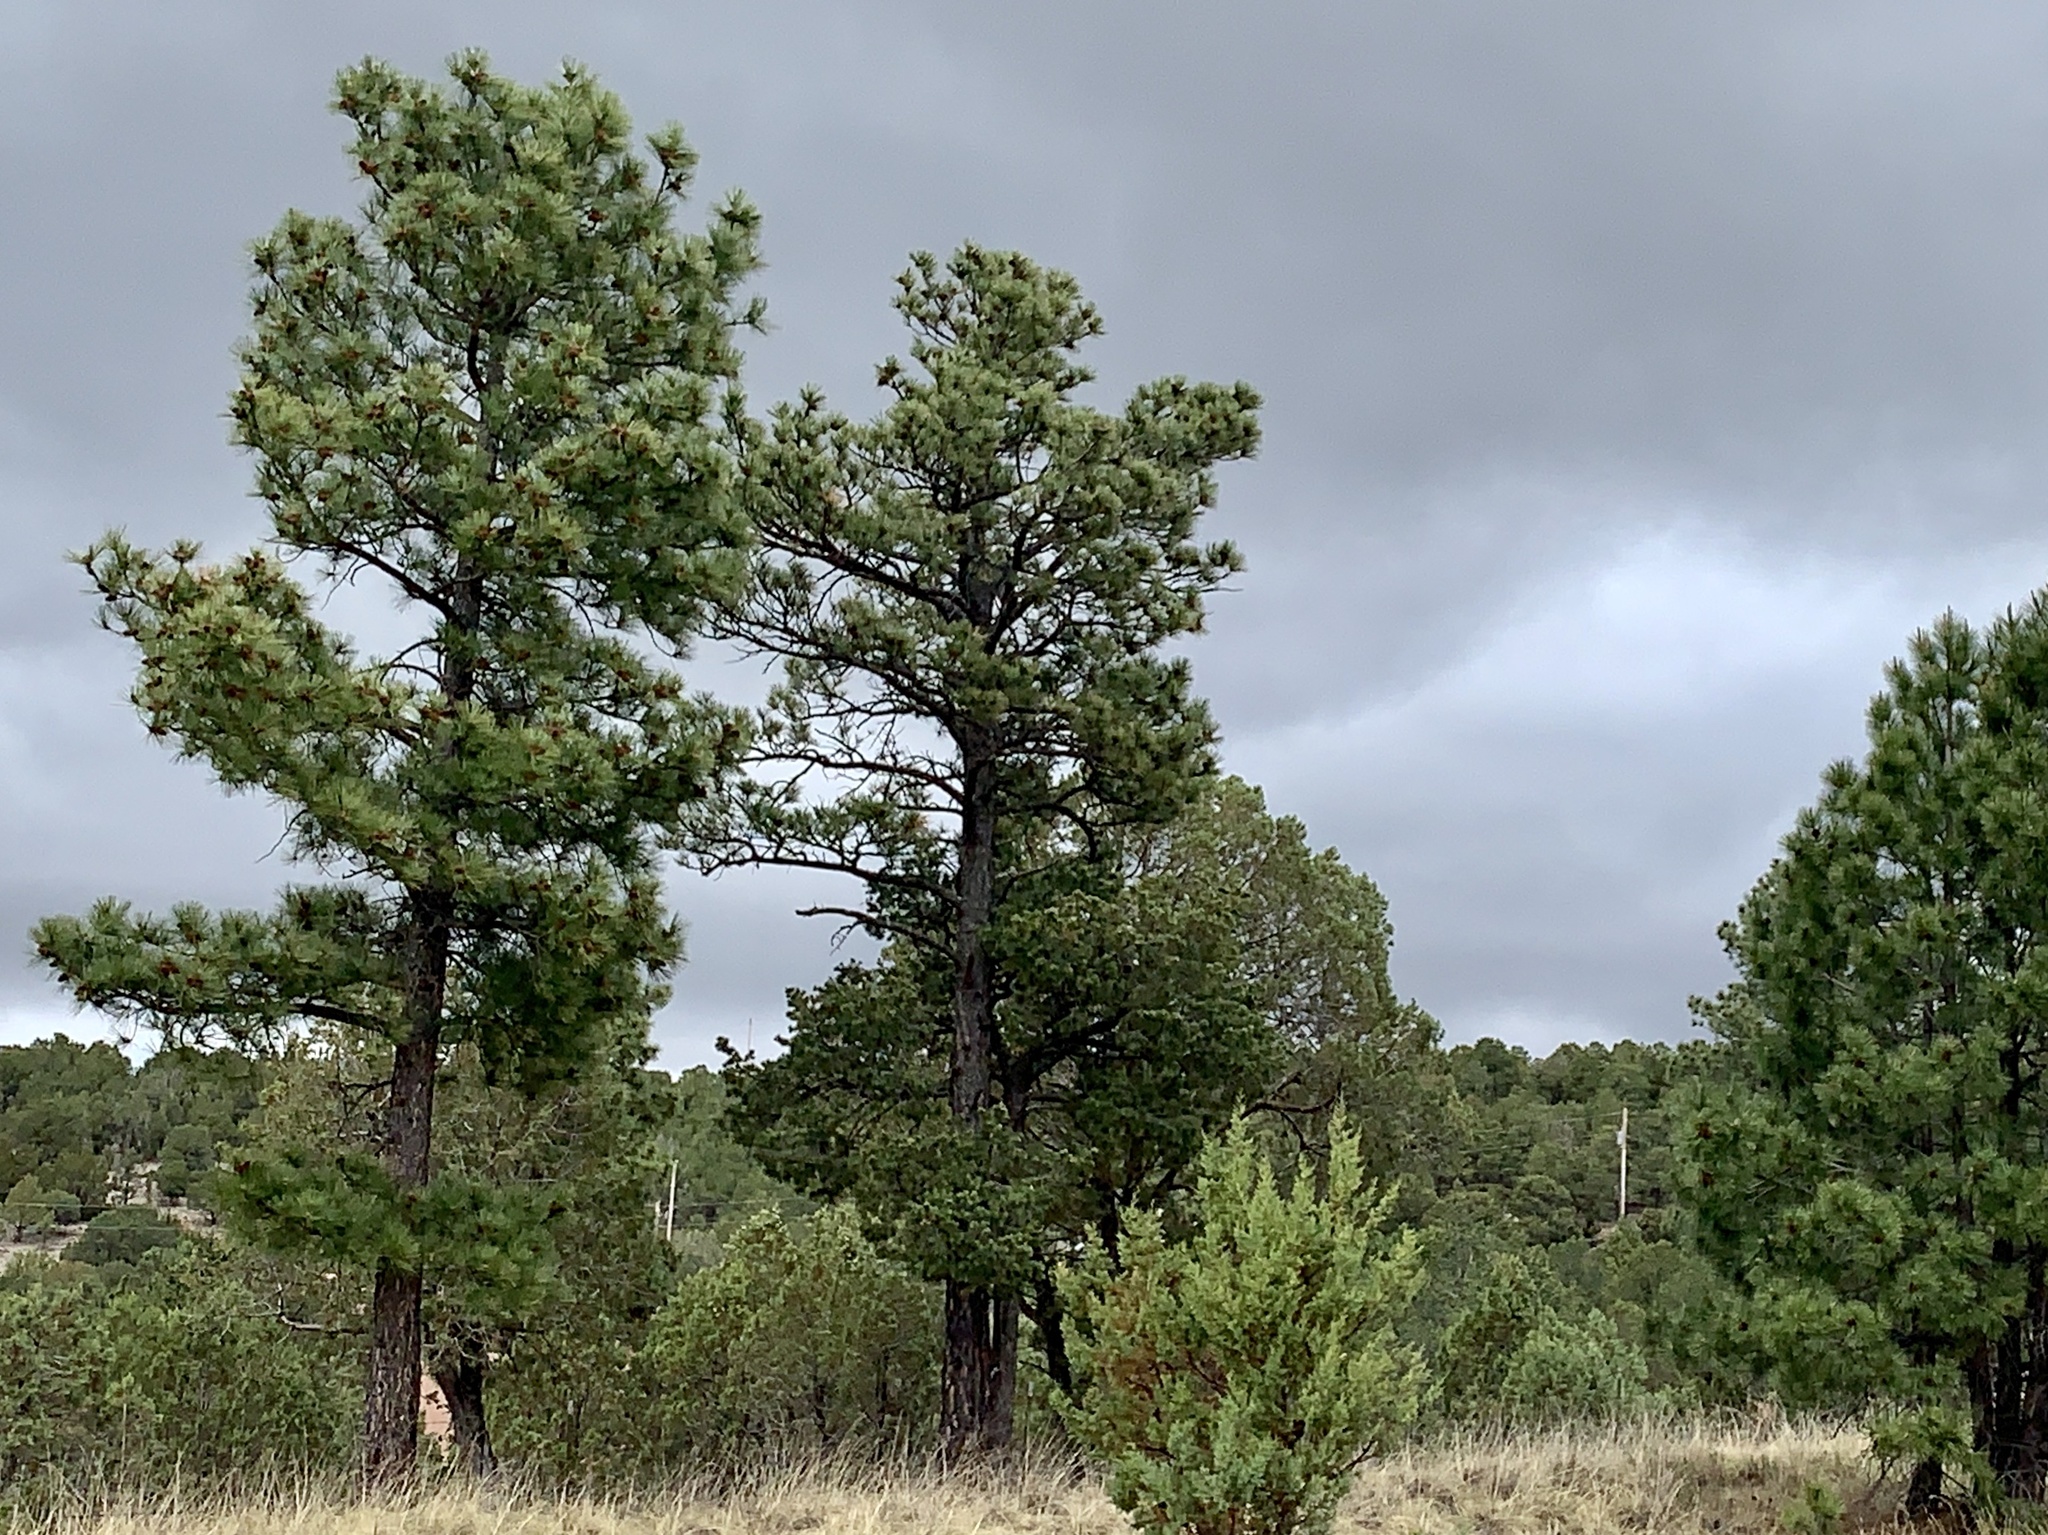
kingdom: Plantae
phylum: Tracheophyta
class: Pinopsida
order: Pinales
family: Pinaceae
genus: Pinus
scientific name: Pinus ponderosa
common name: Western yellow-pine
